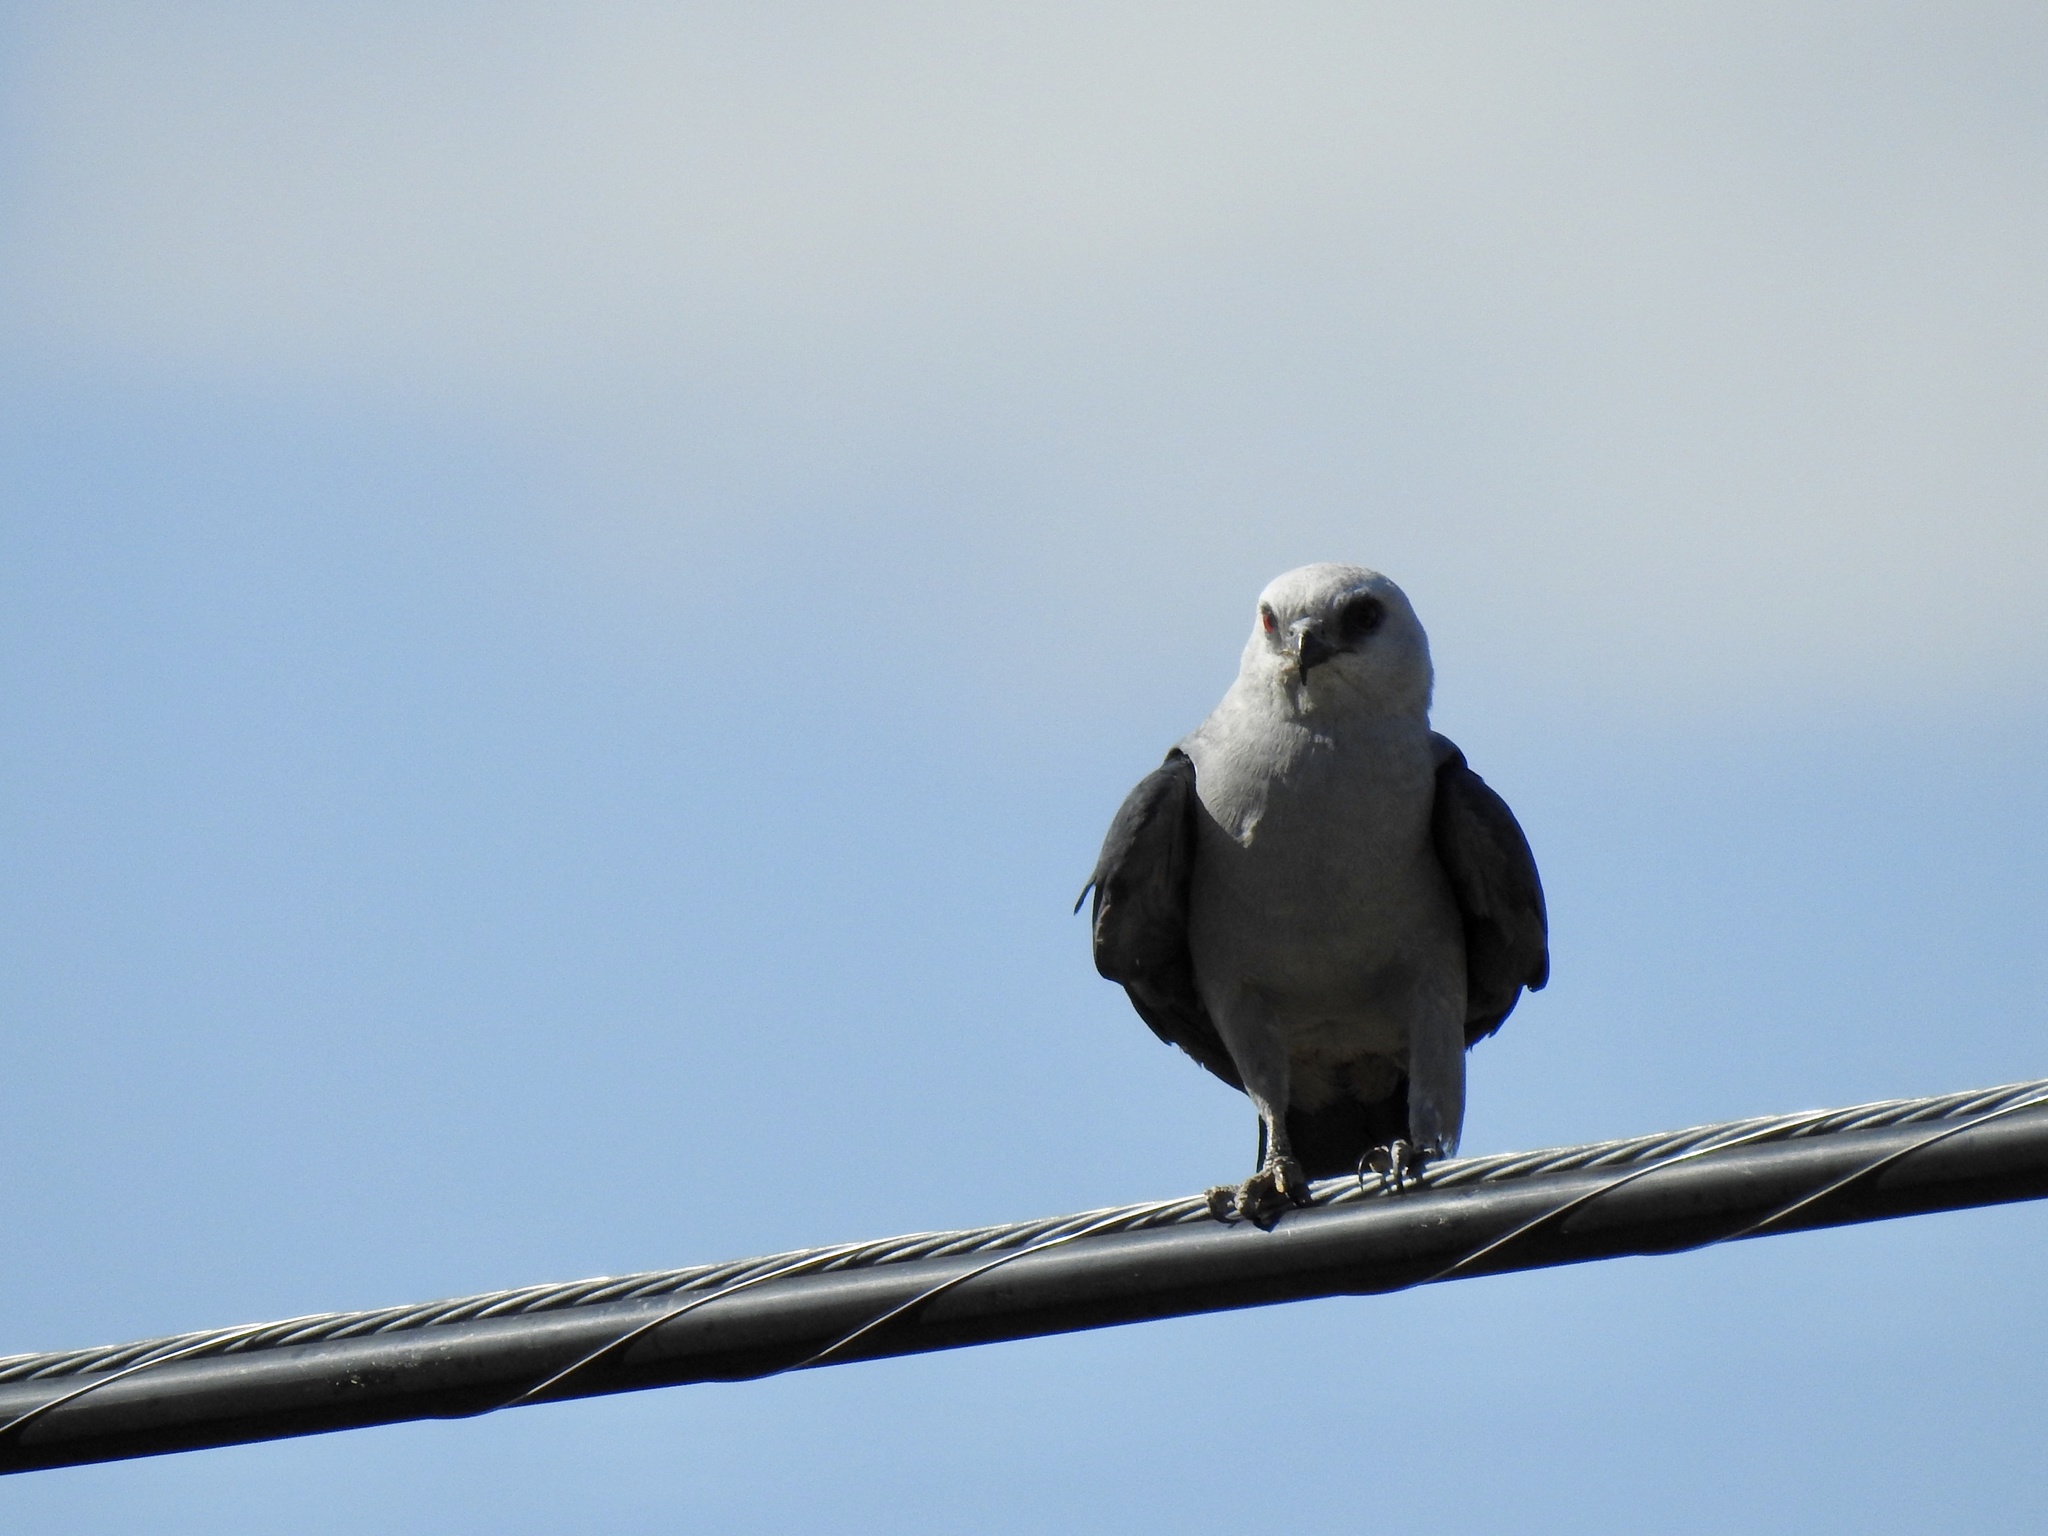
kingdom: Animalia
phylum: Chordata
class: Aves
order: Accipitriformes
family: Accipitridae
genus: Ictinia
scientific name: Ictinia mississippiensis
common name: Mississippi kite
